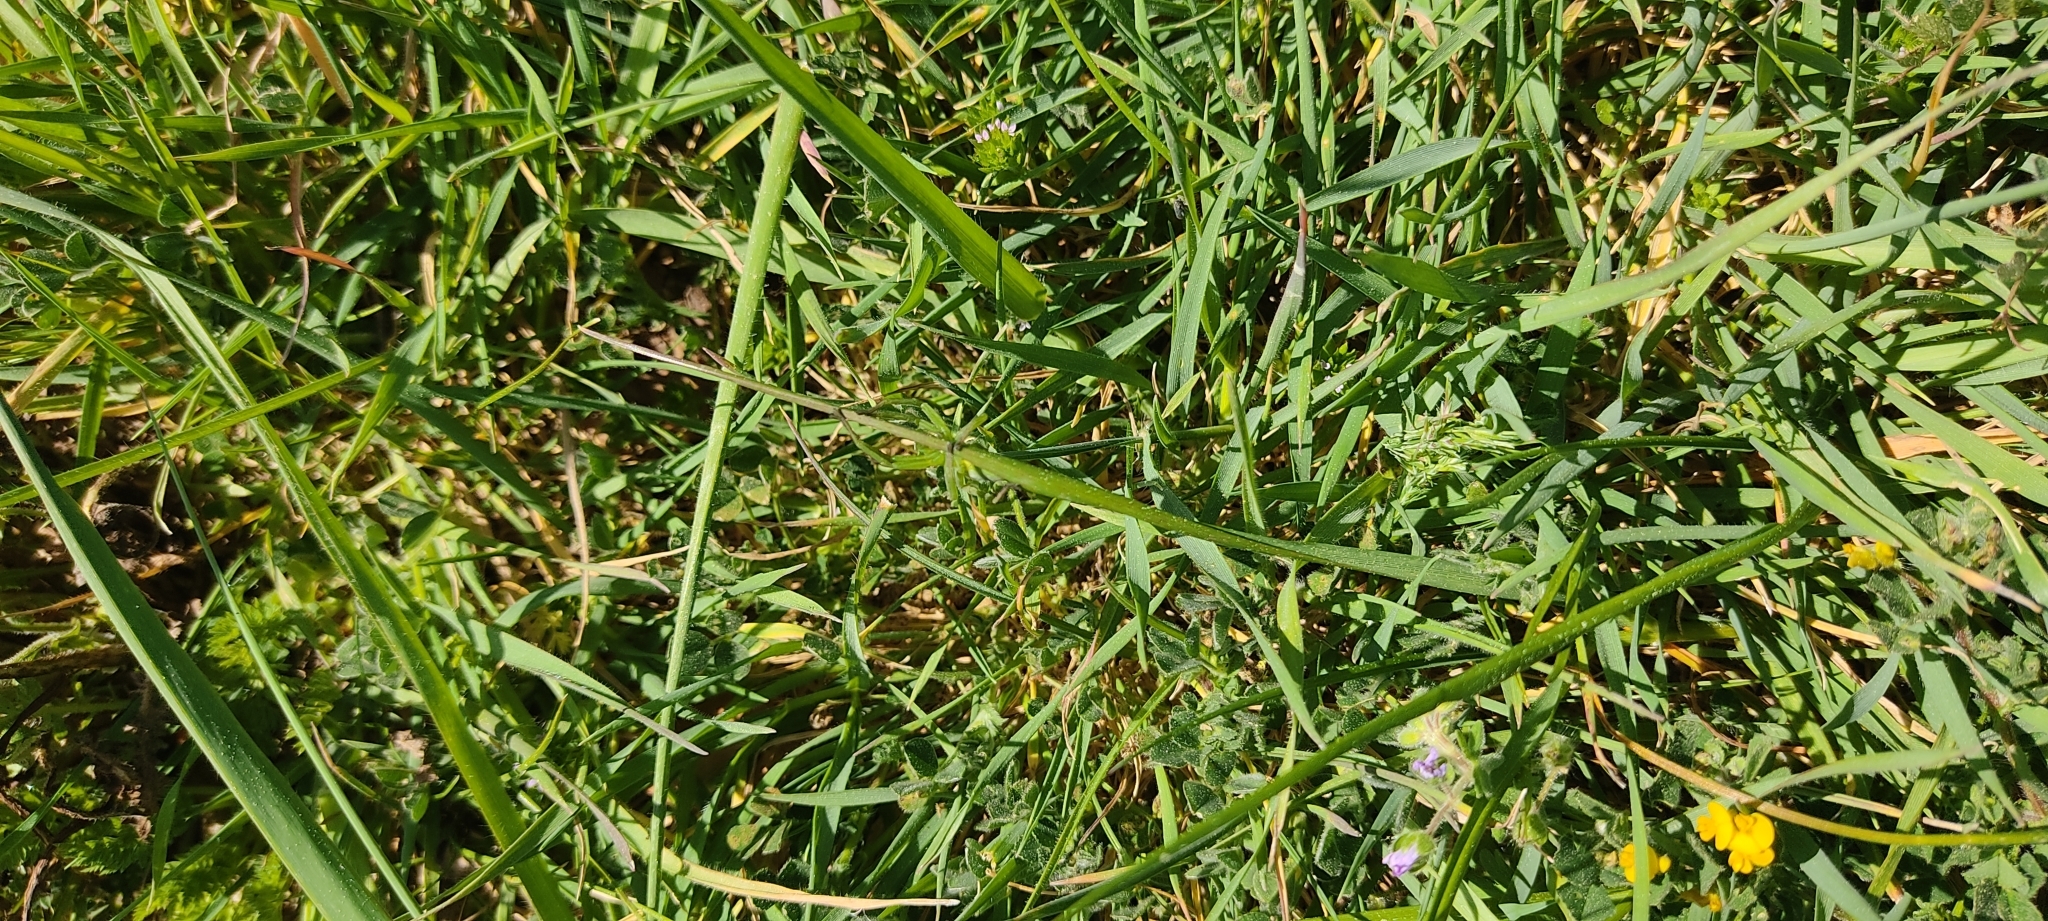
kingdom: Animalia
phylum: Arthropoda
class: Arachnida
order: Araneae
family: Sparassidae
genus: Micrommata
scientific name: Micrommata ligurina
